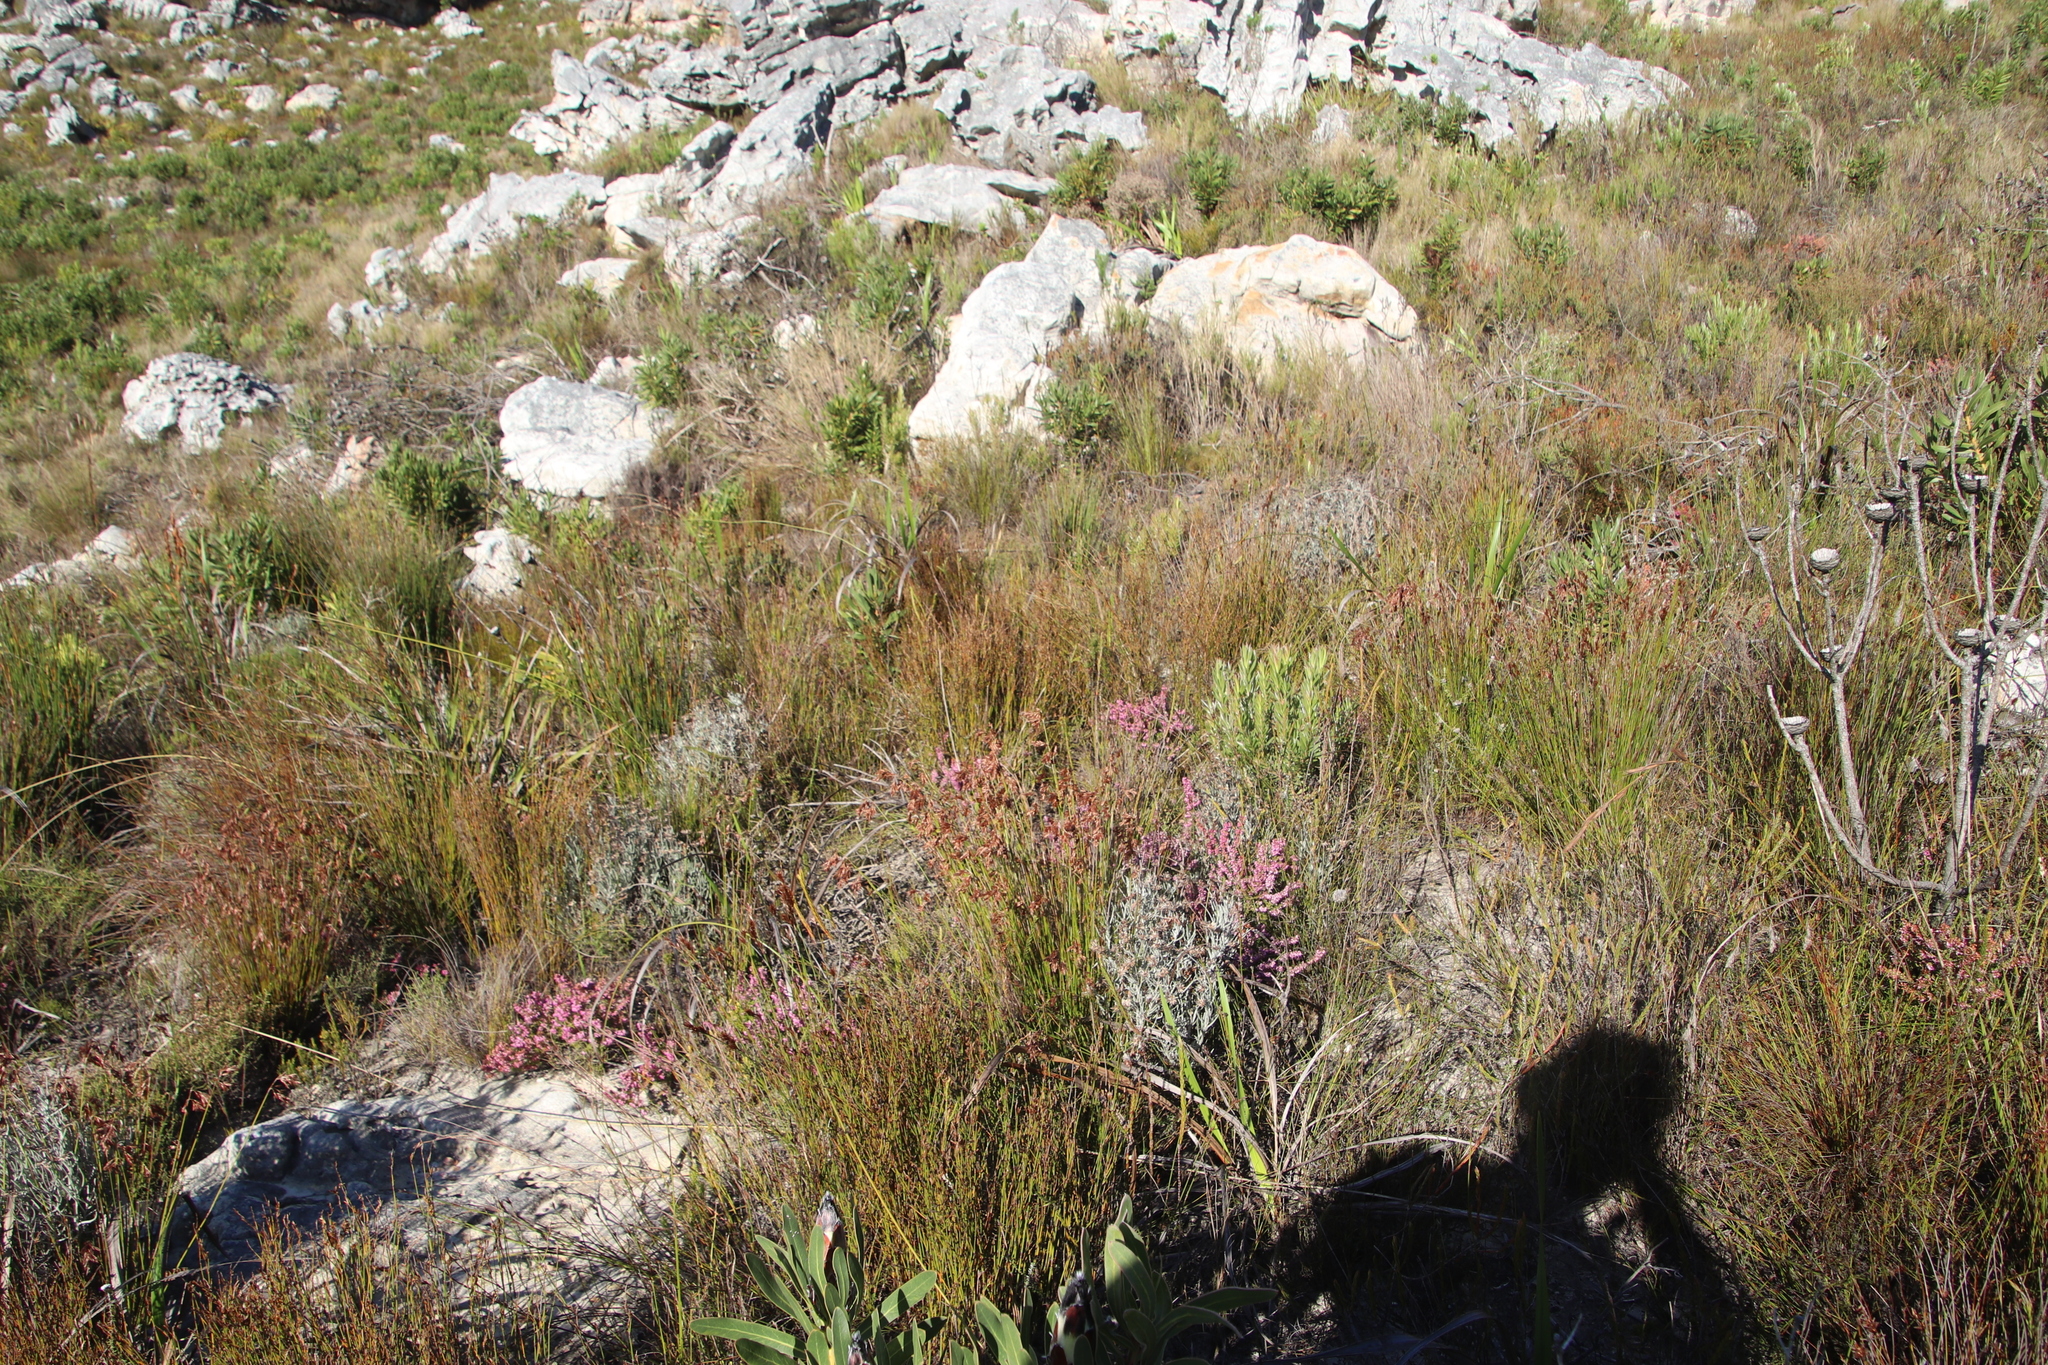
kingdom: Plantae
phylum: Tracheophyta
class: Magnoliopsida
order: Ericales
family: Ericaceae
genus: Erica
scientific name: Erica nudiflora
